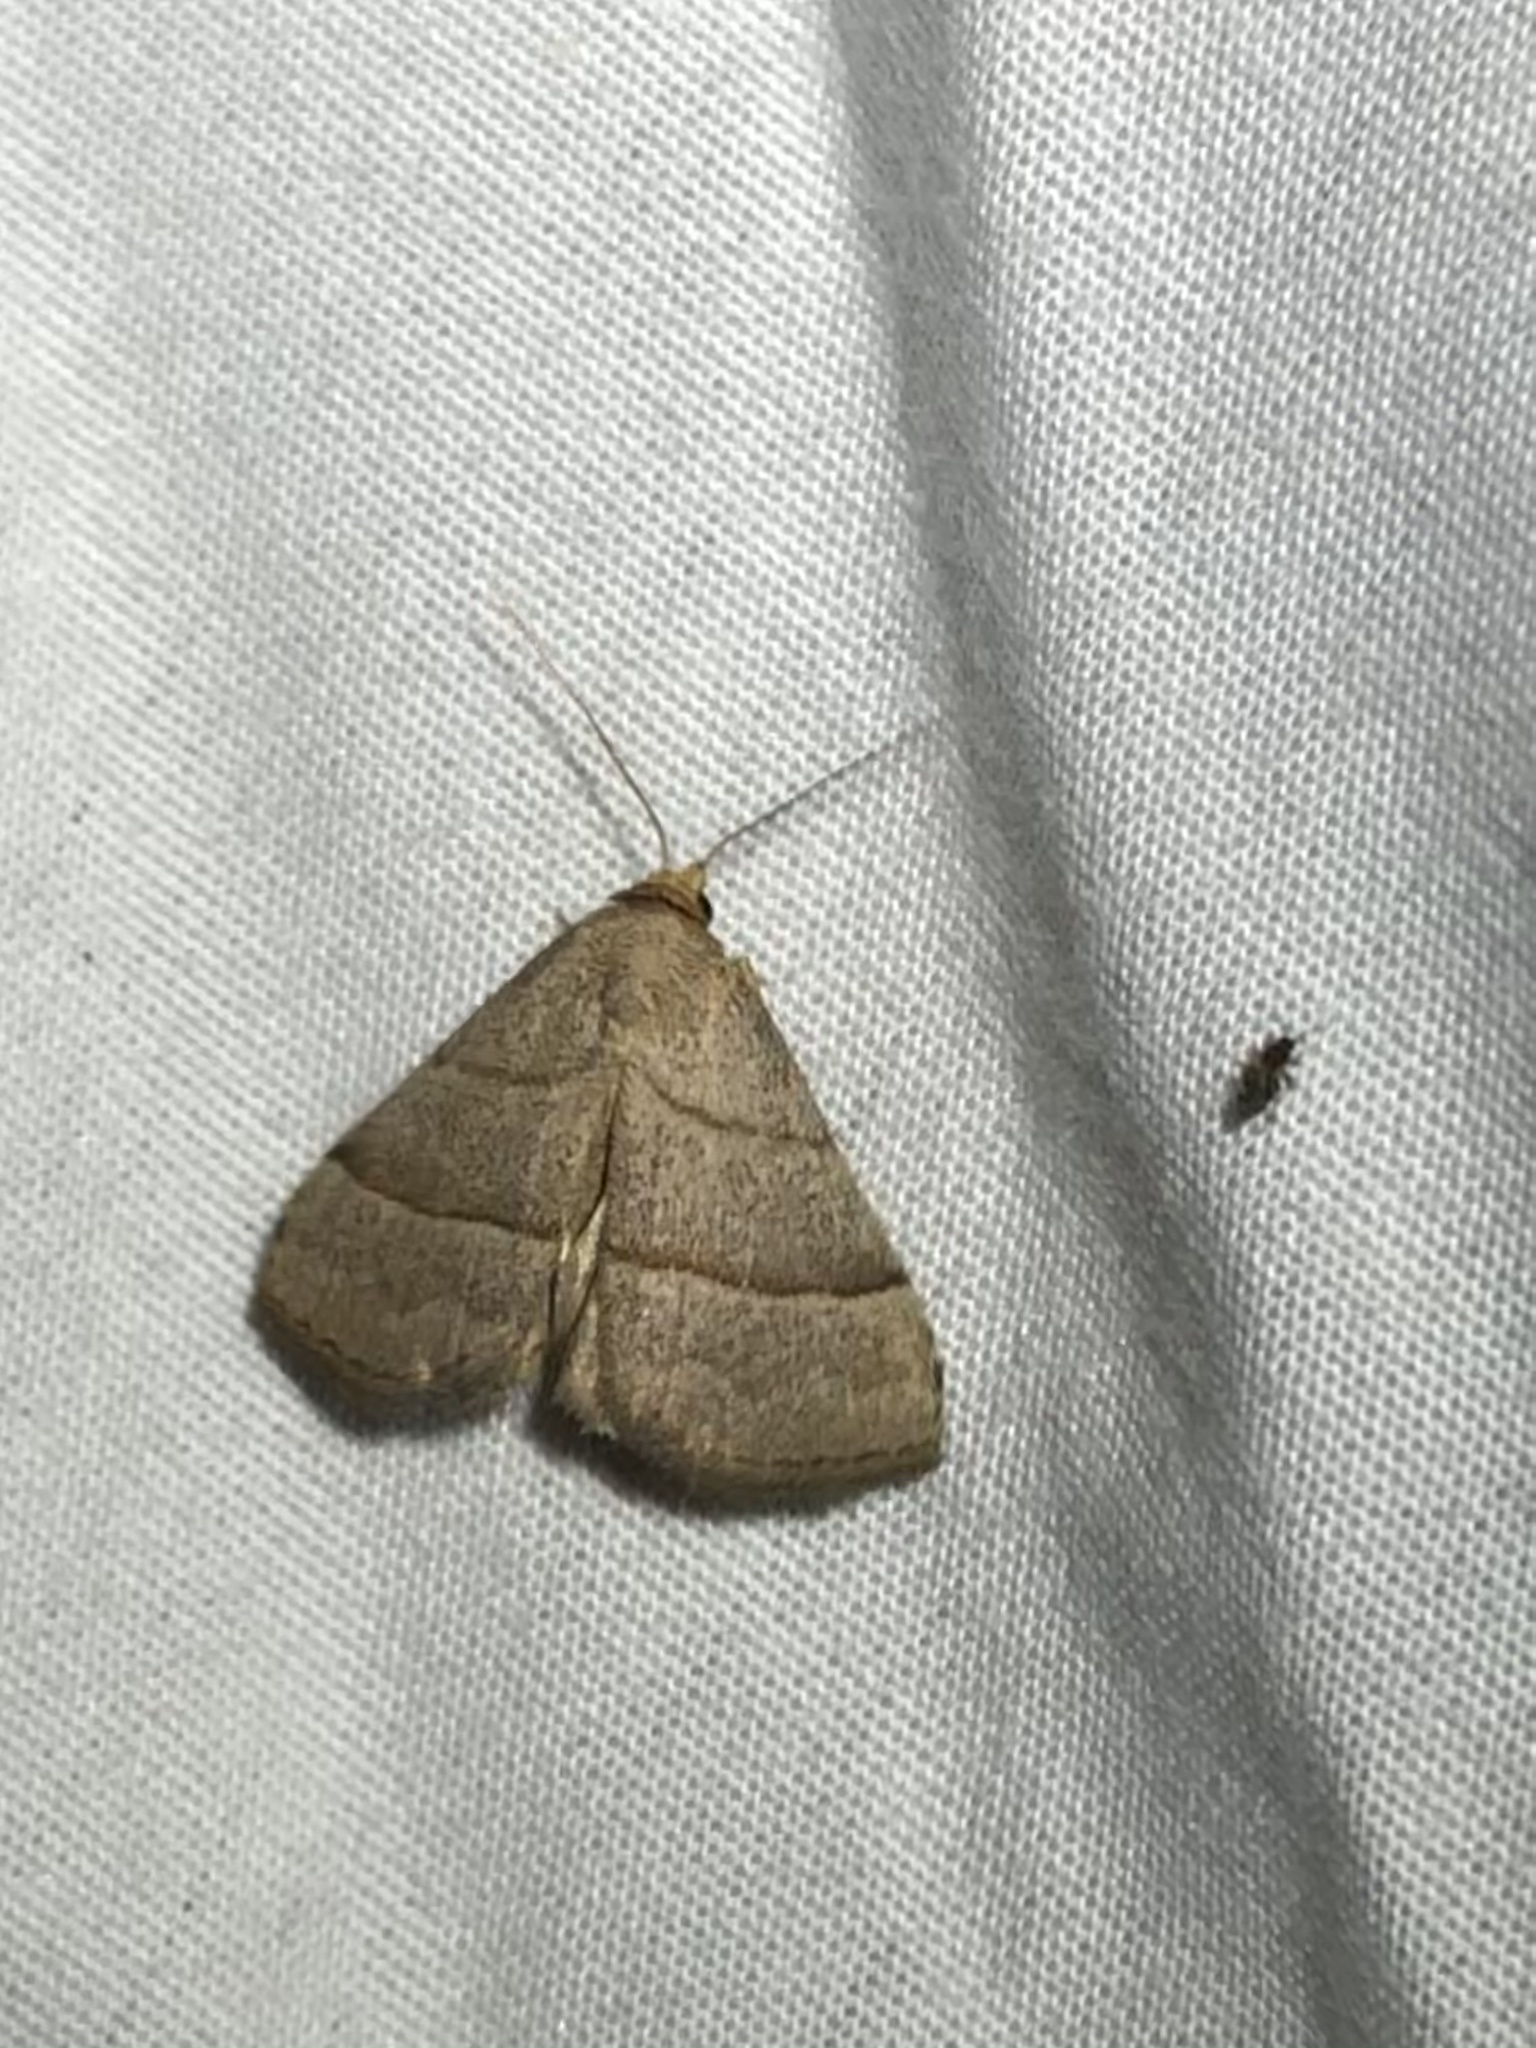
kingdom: Animalia
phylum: Arthropoda
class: Insecta
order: Lepidoptera
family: Erebidae
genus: Zelicodes
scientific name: Zelicodes linearis
